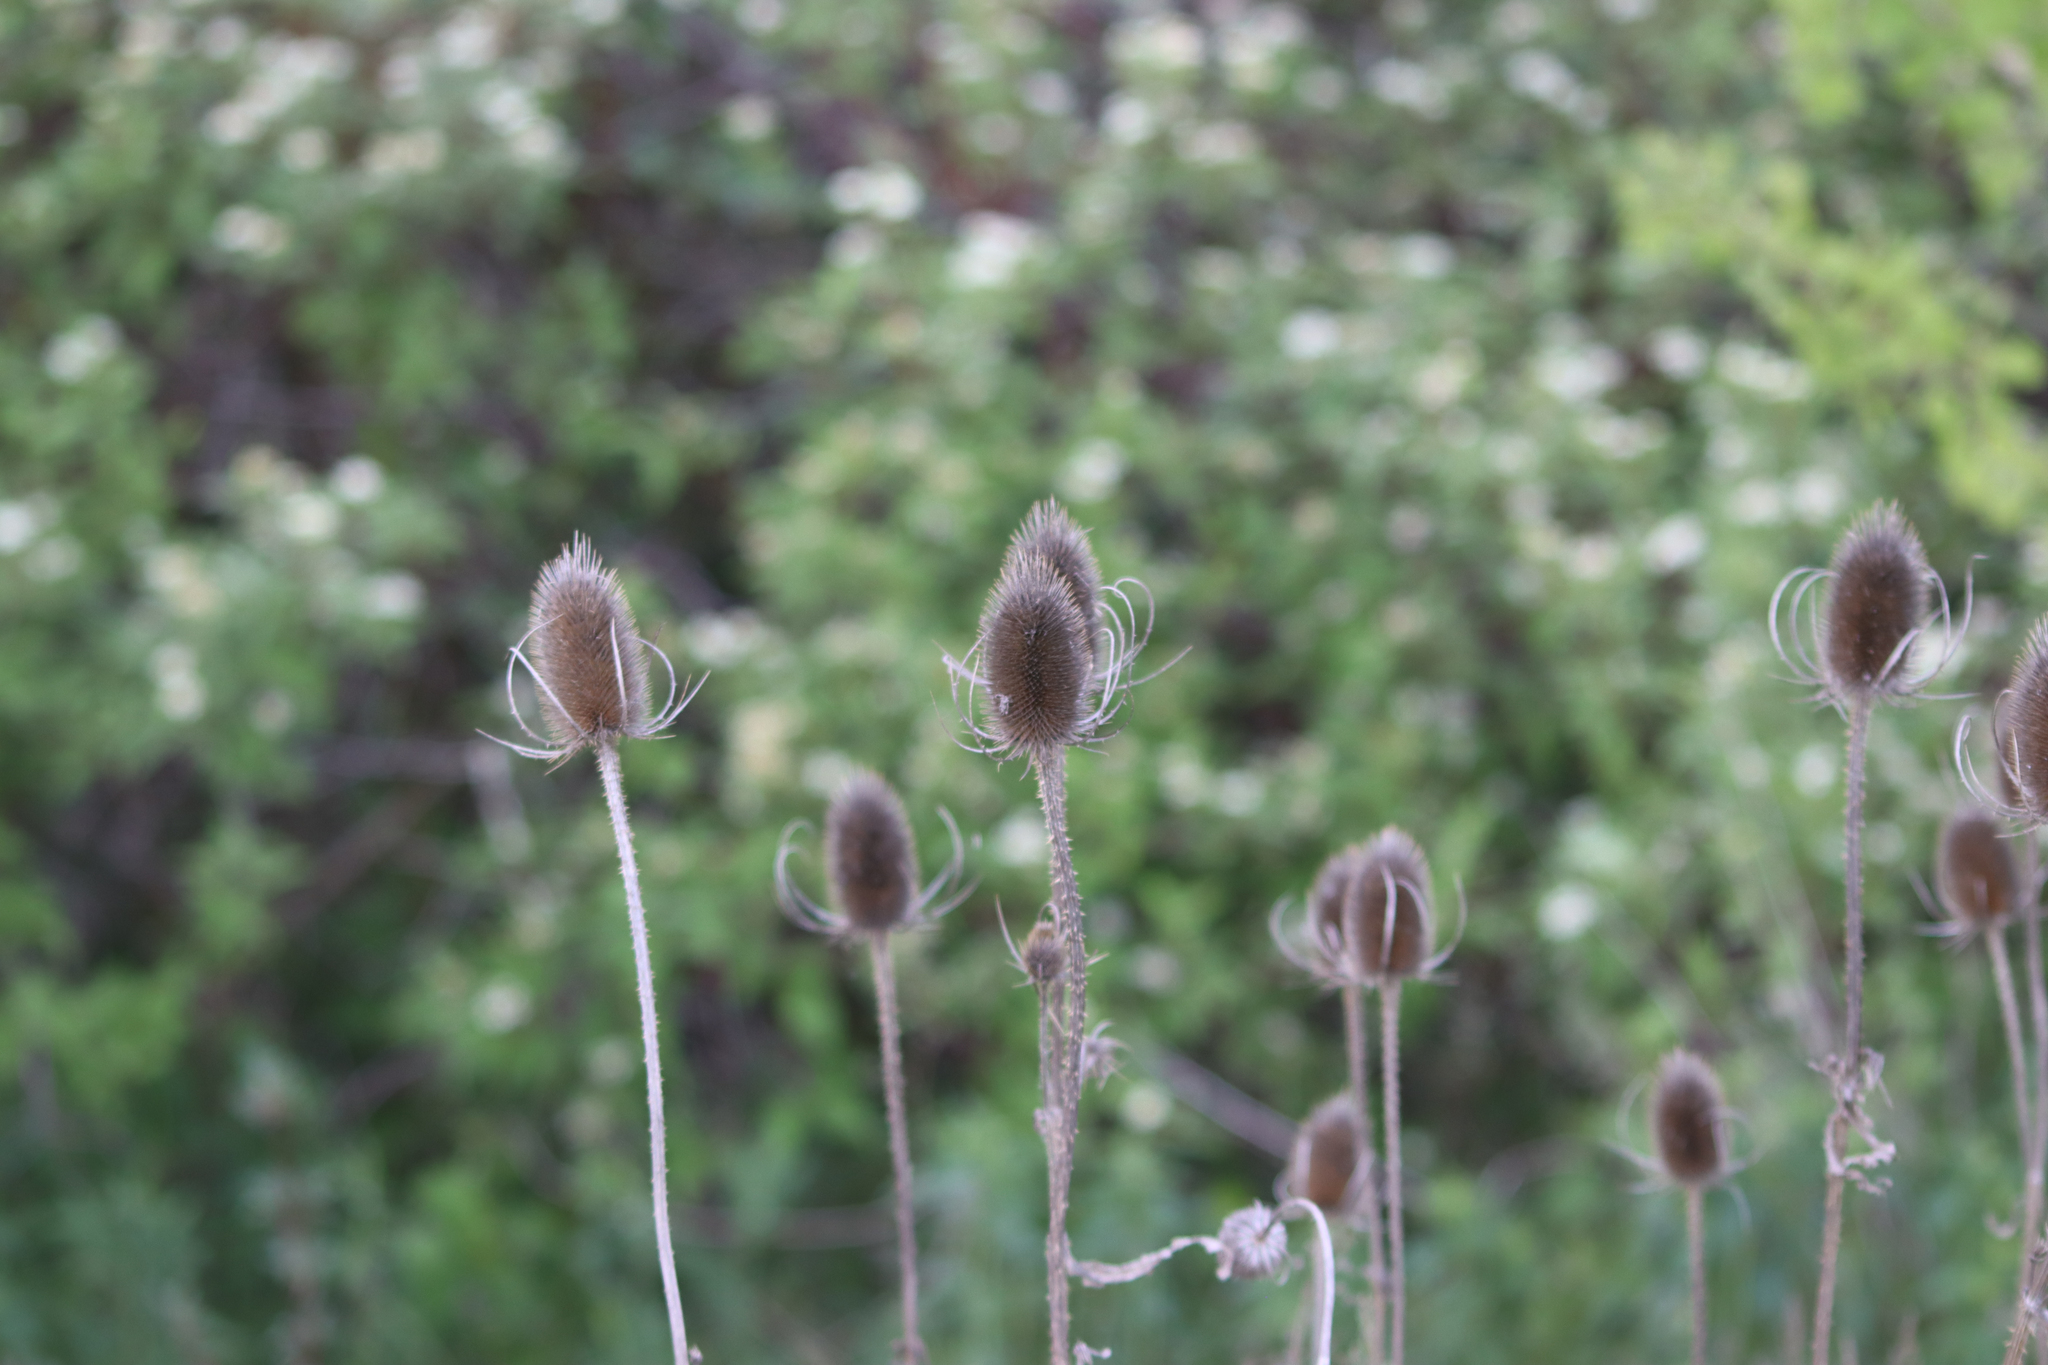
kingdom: Plantae
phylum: Tracheophyta
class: Magnoliopsida
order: Dipsacales
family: Caprifoliaceae
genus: Dipsacus
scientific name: Dipsacus fullonum
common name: Teasel
